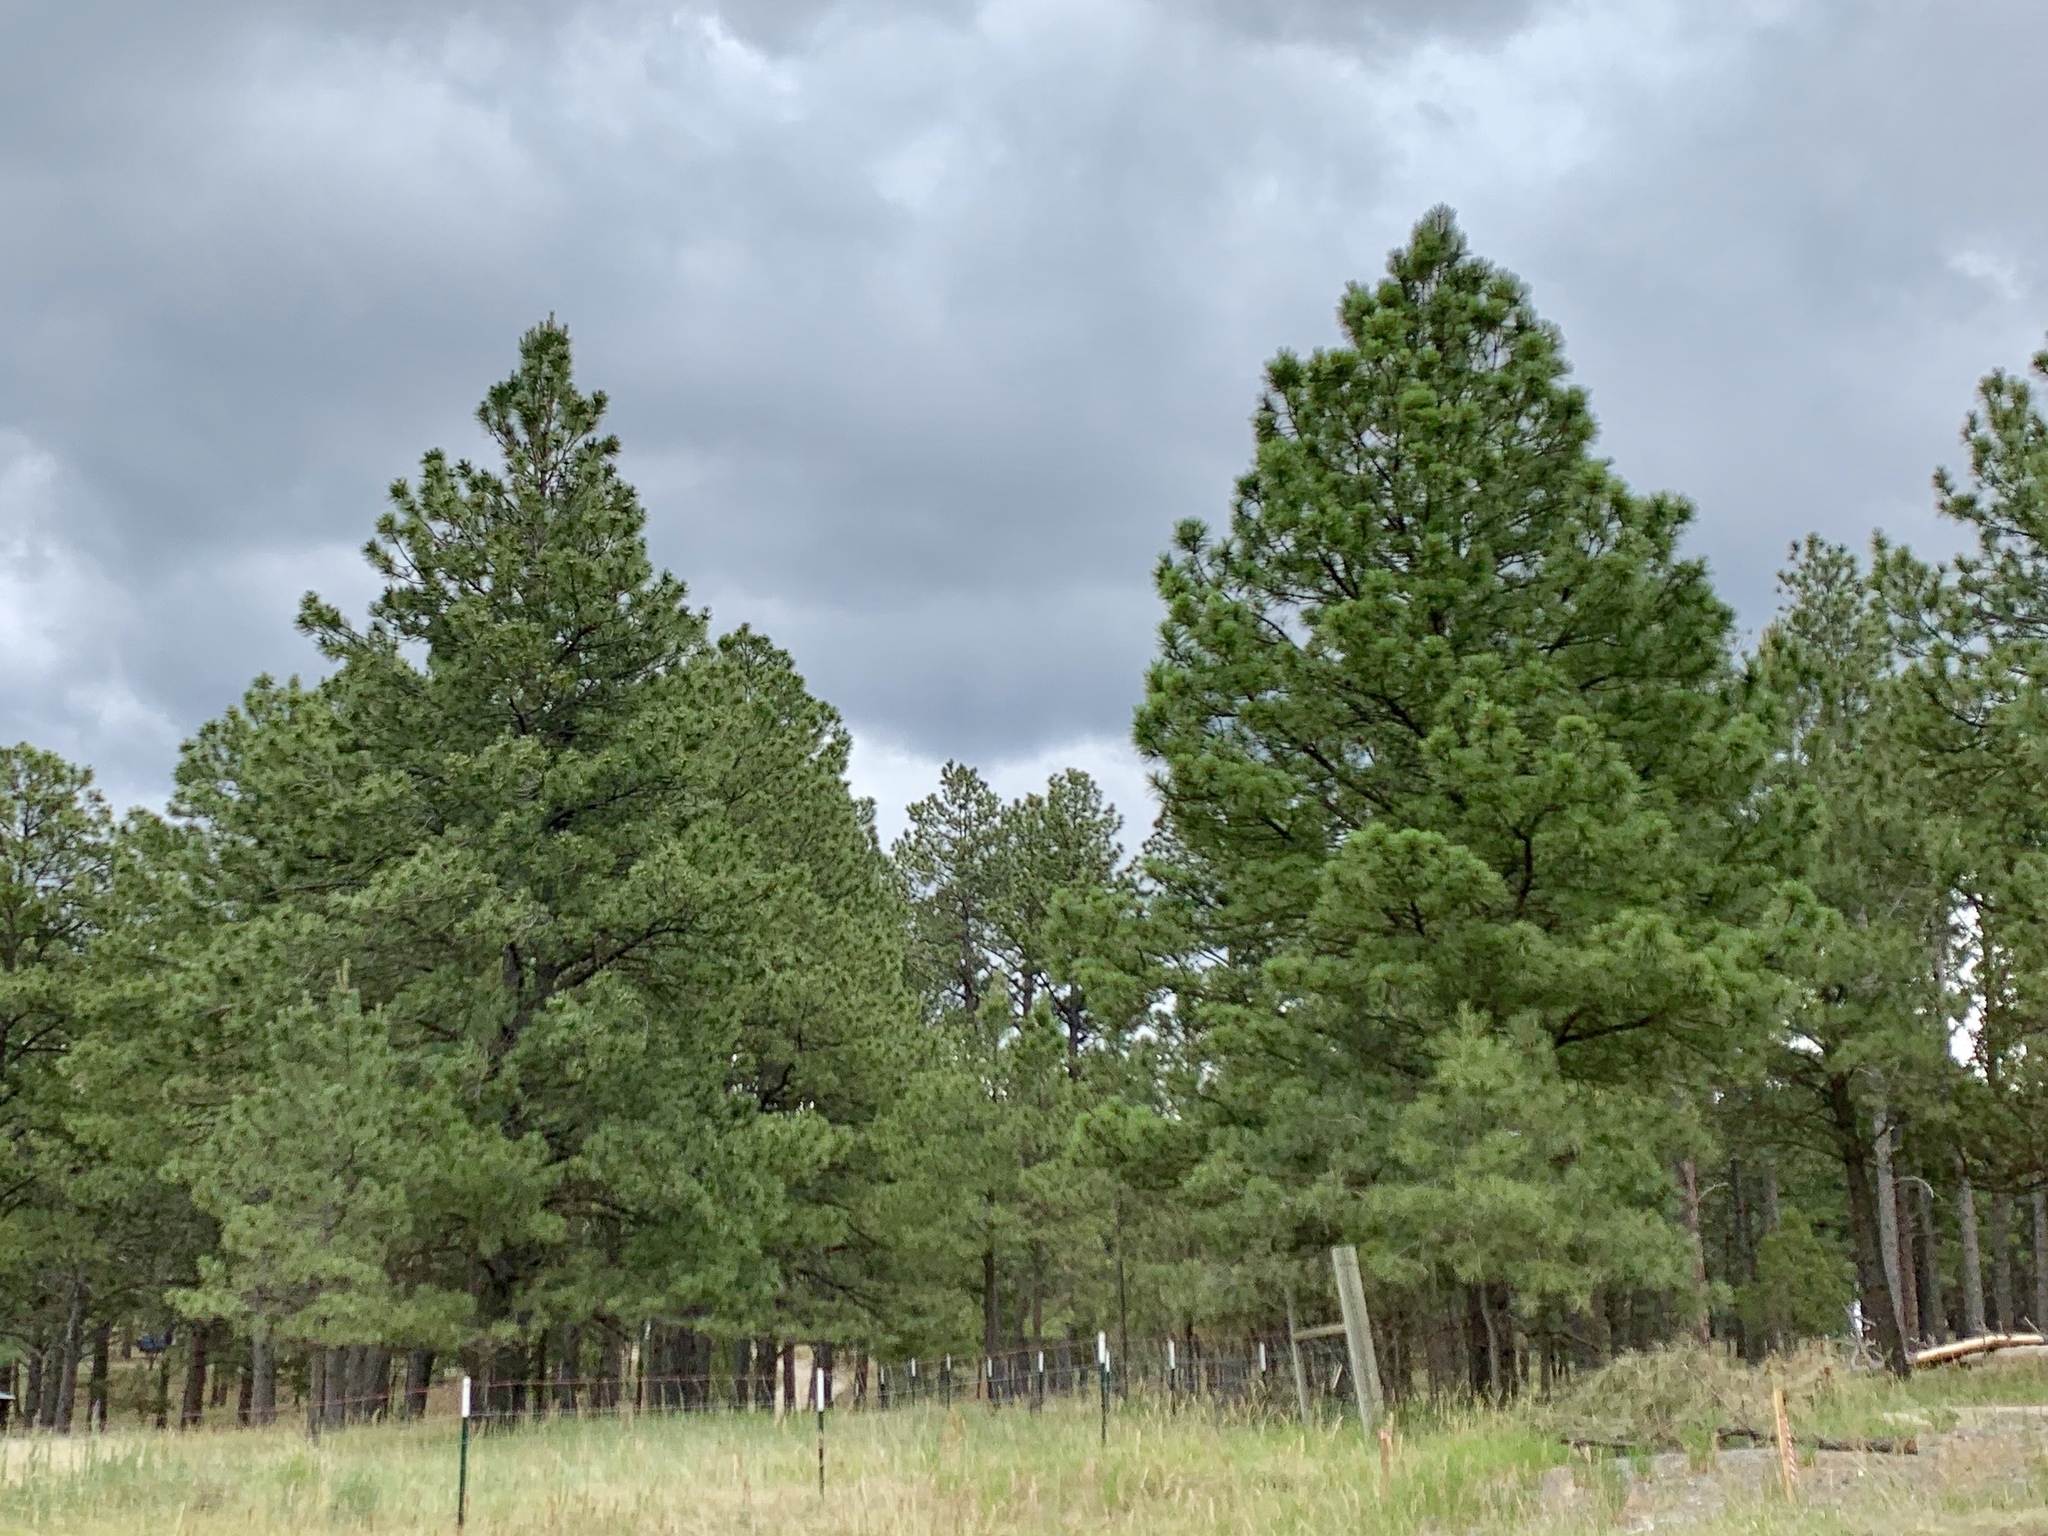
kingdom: Plantae
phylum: Tracheophyta
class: Pinopsida
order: Pinales
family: Pinaceae
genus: Pinus
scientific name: Pinus ponderosa
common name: Western yellow-pine
